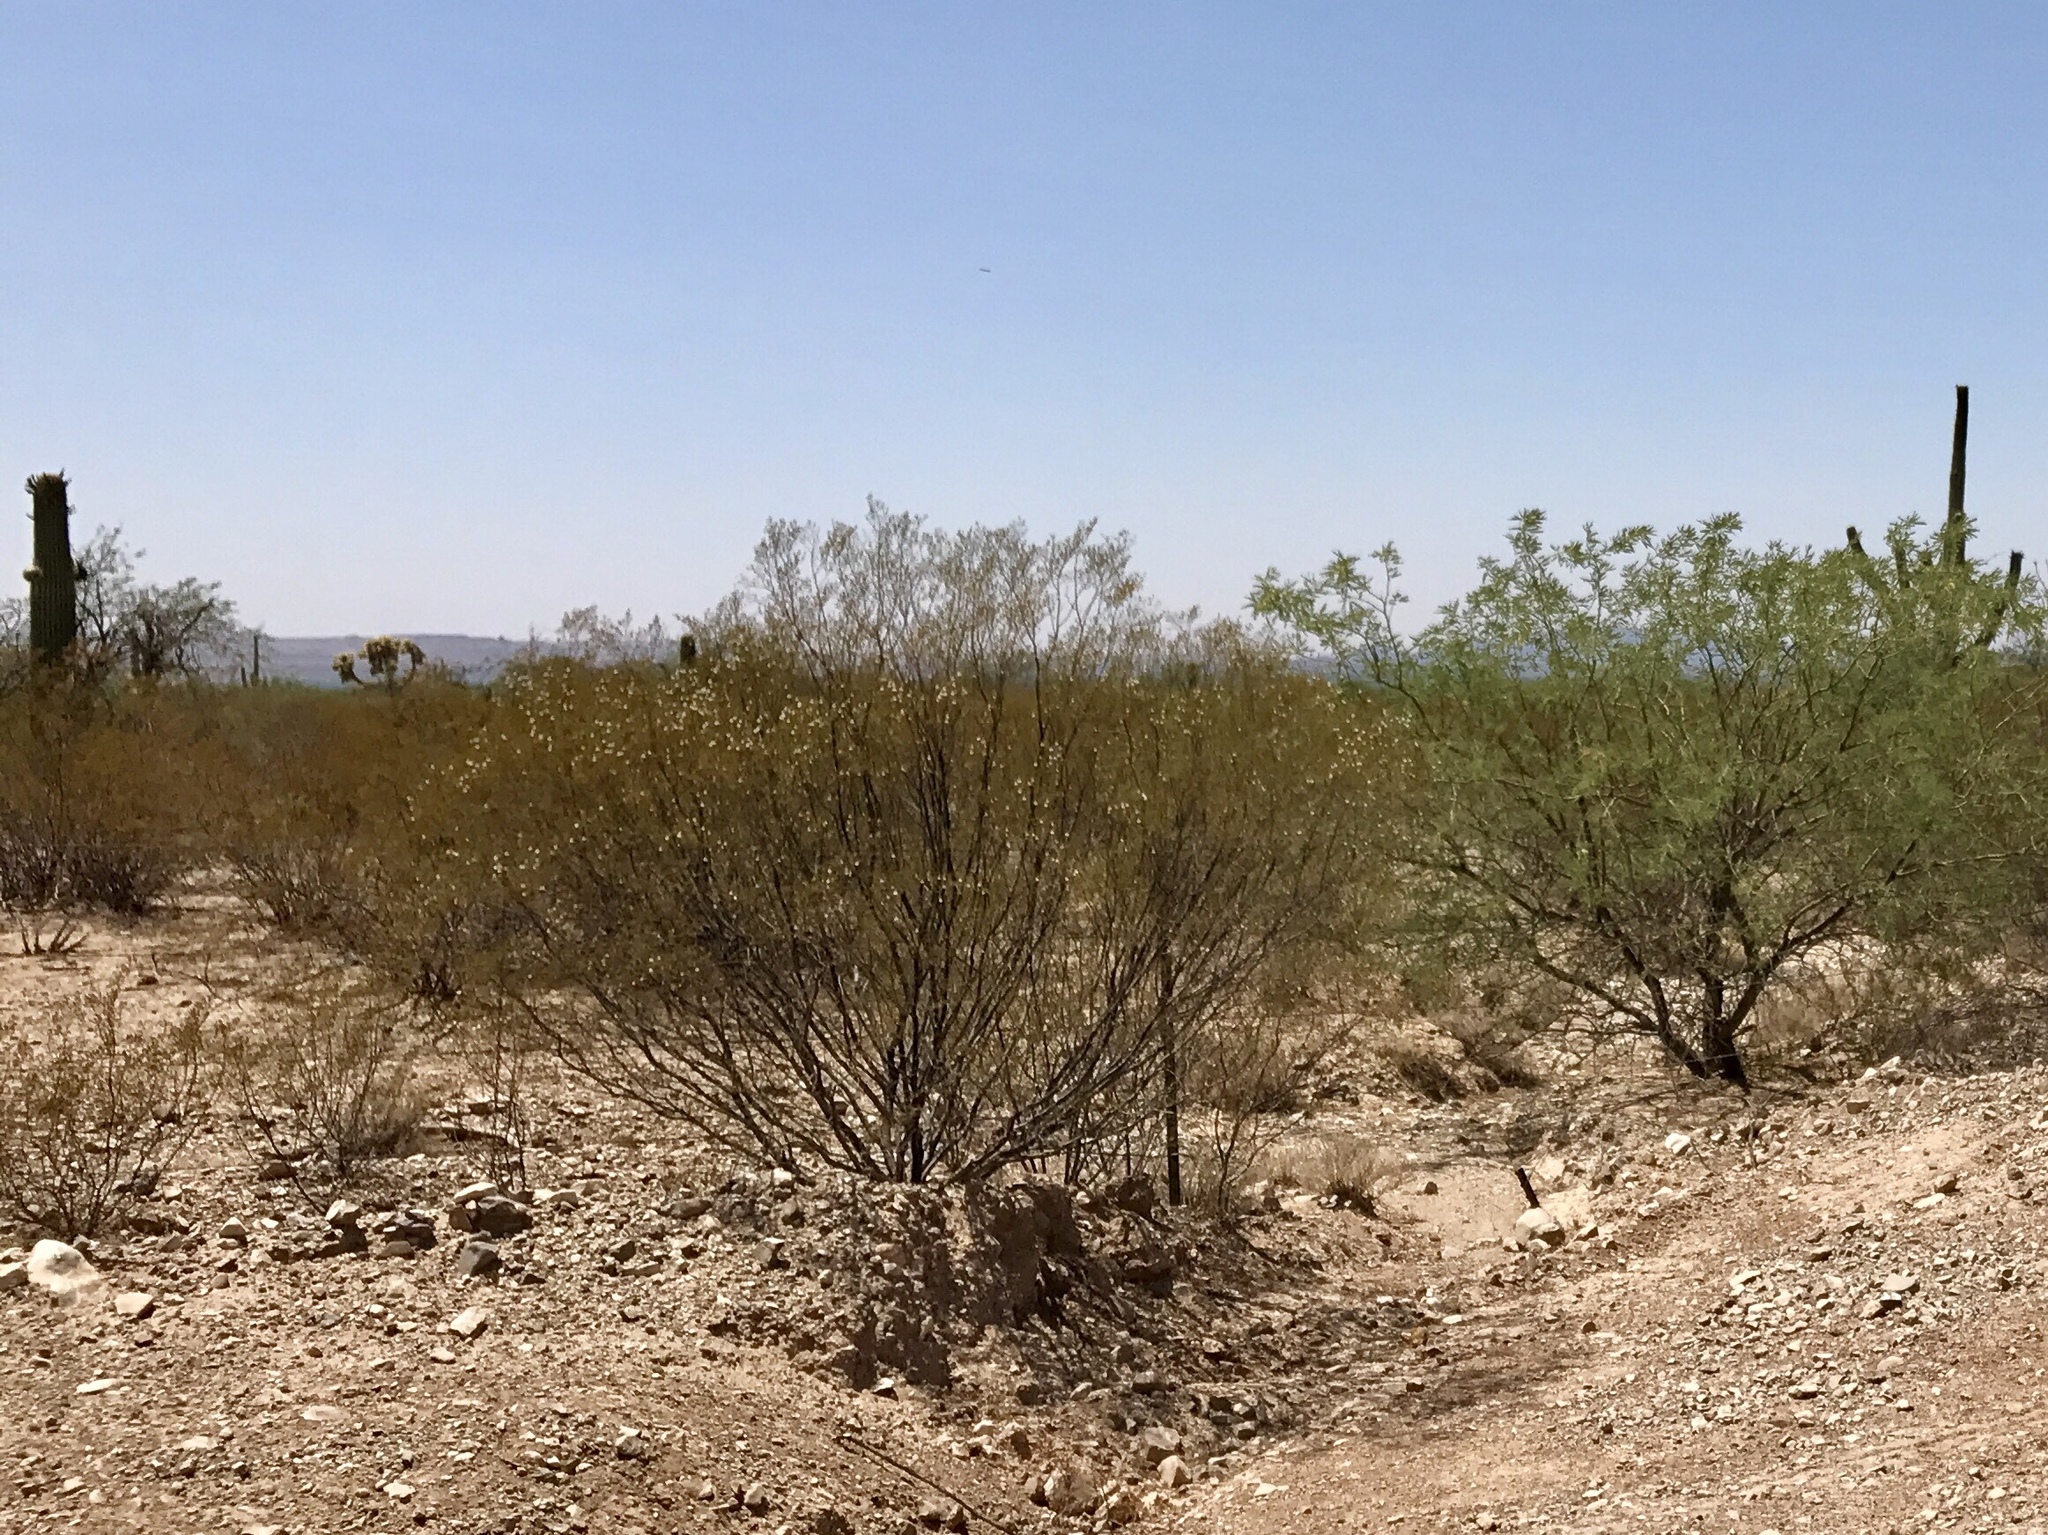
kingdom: Plantae
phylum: Tracheophyta
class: Magnoliopsida
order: Zygophyllales
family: Zygophyllaceae
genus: Larrea
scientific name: Larrea tridentata
